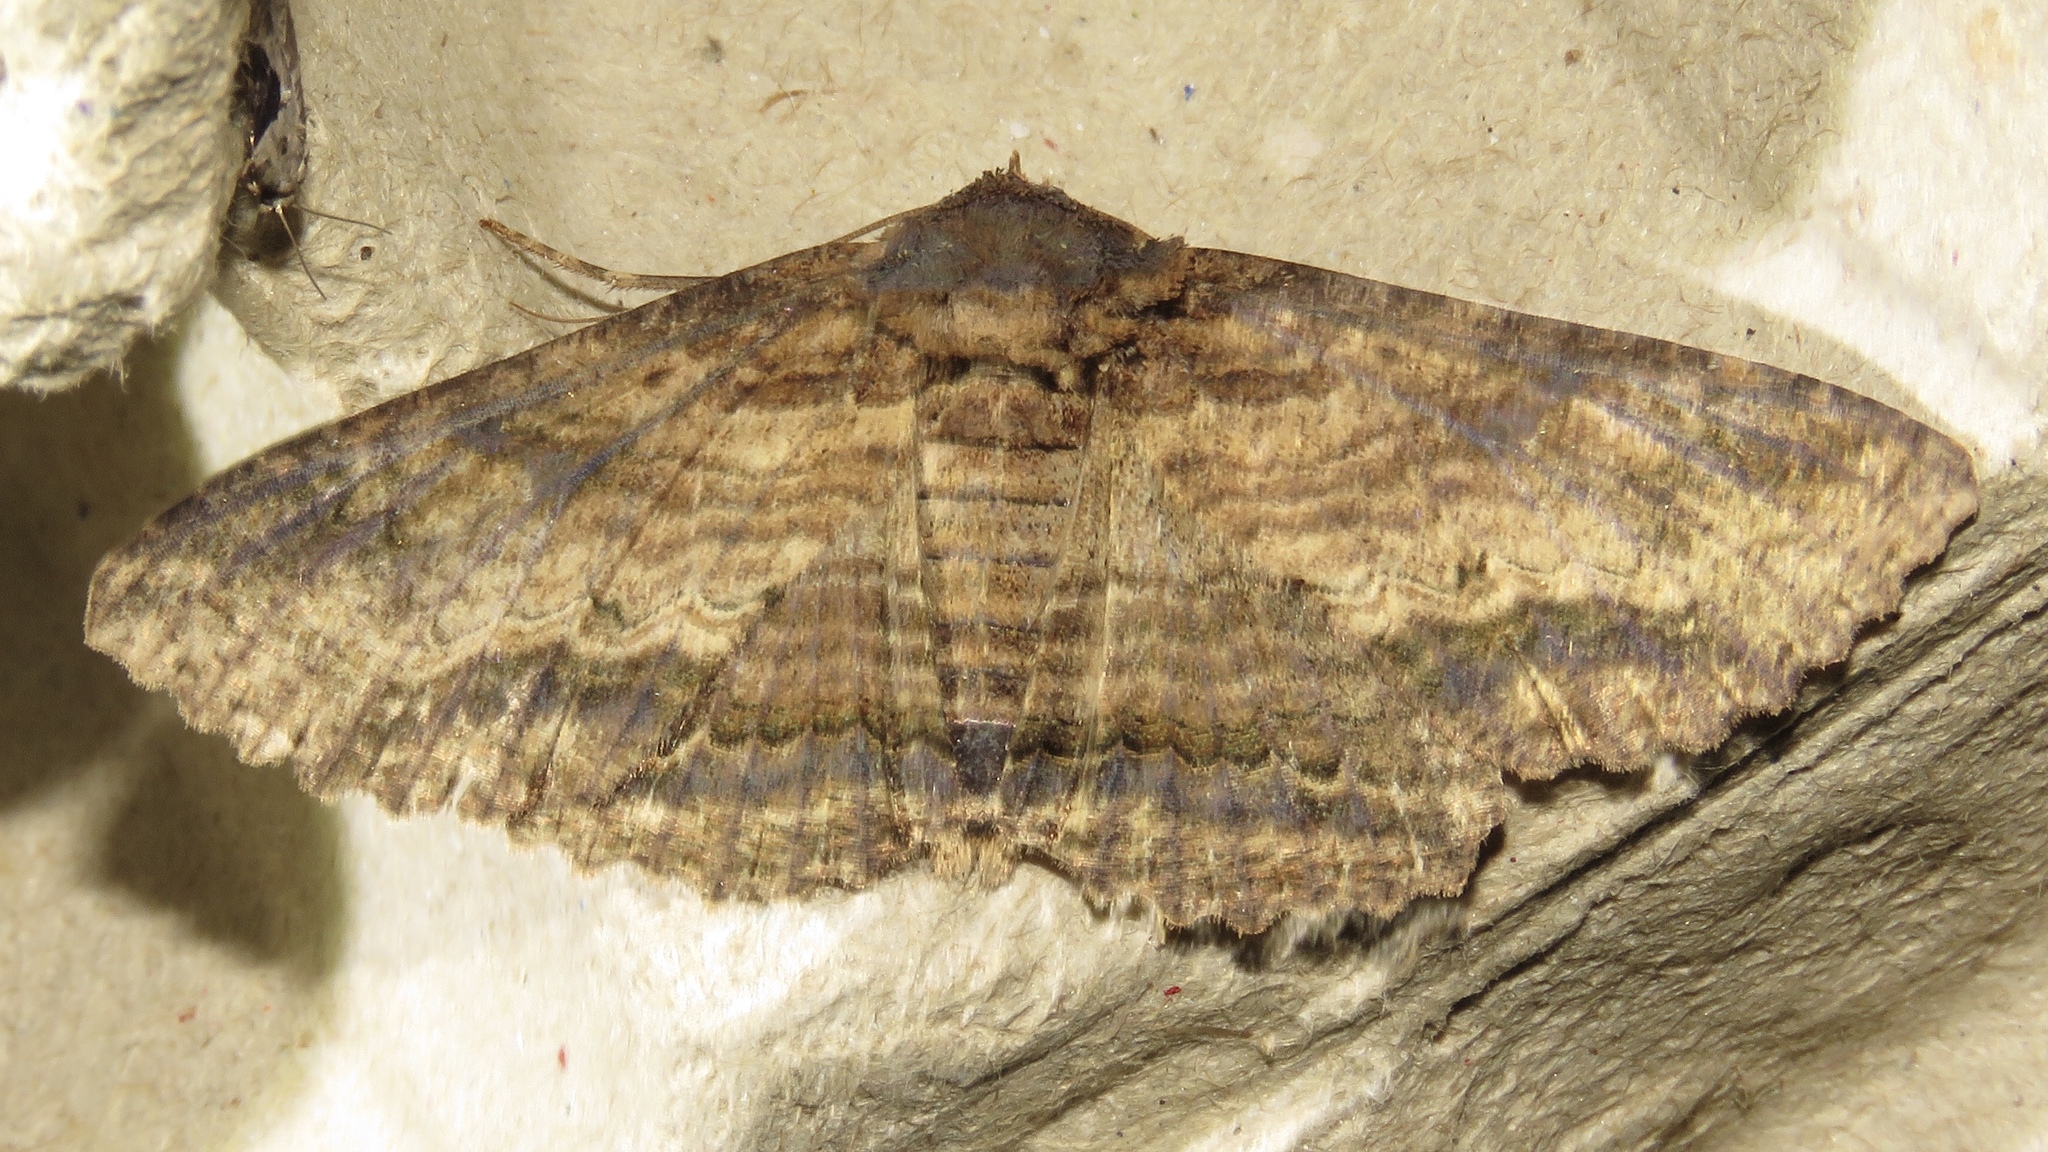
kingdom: Animalia
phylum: Arthropoda
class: Insecta
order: Lepidoptera
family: Erebidae
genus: Zale
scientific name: Zale lunata
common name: Lunate zale moth
